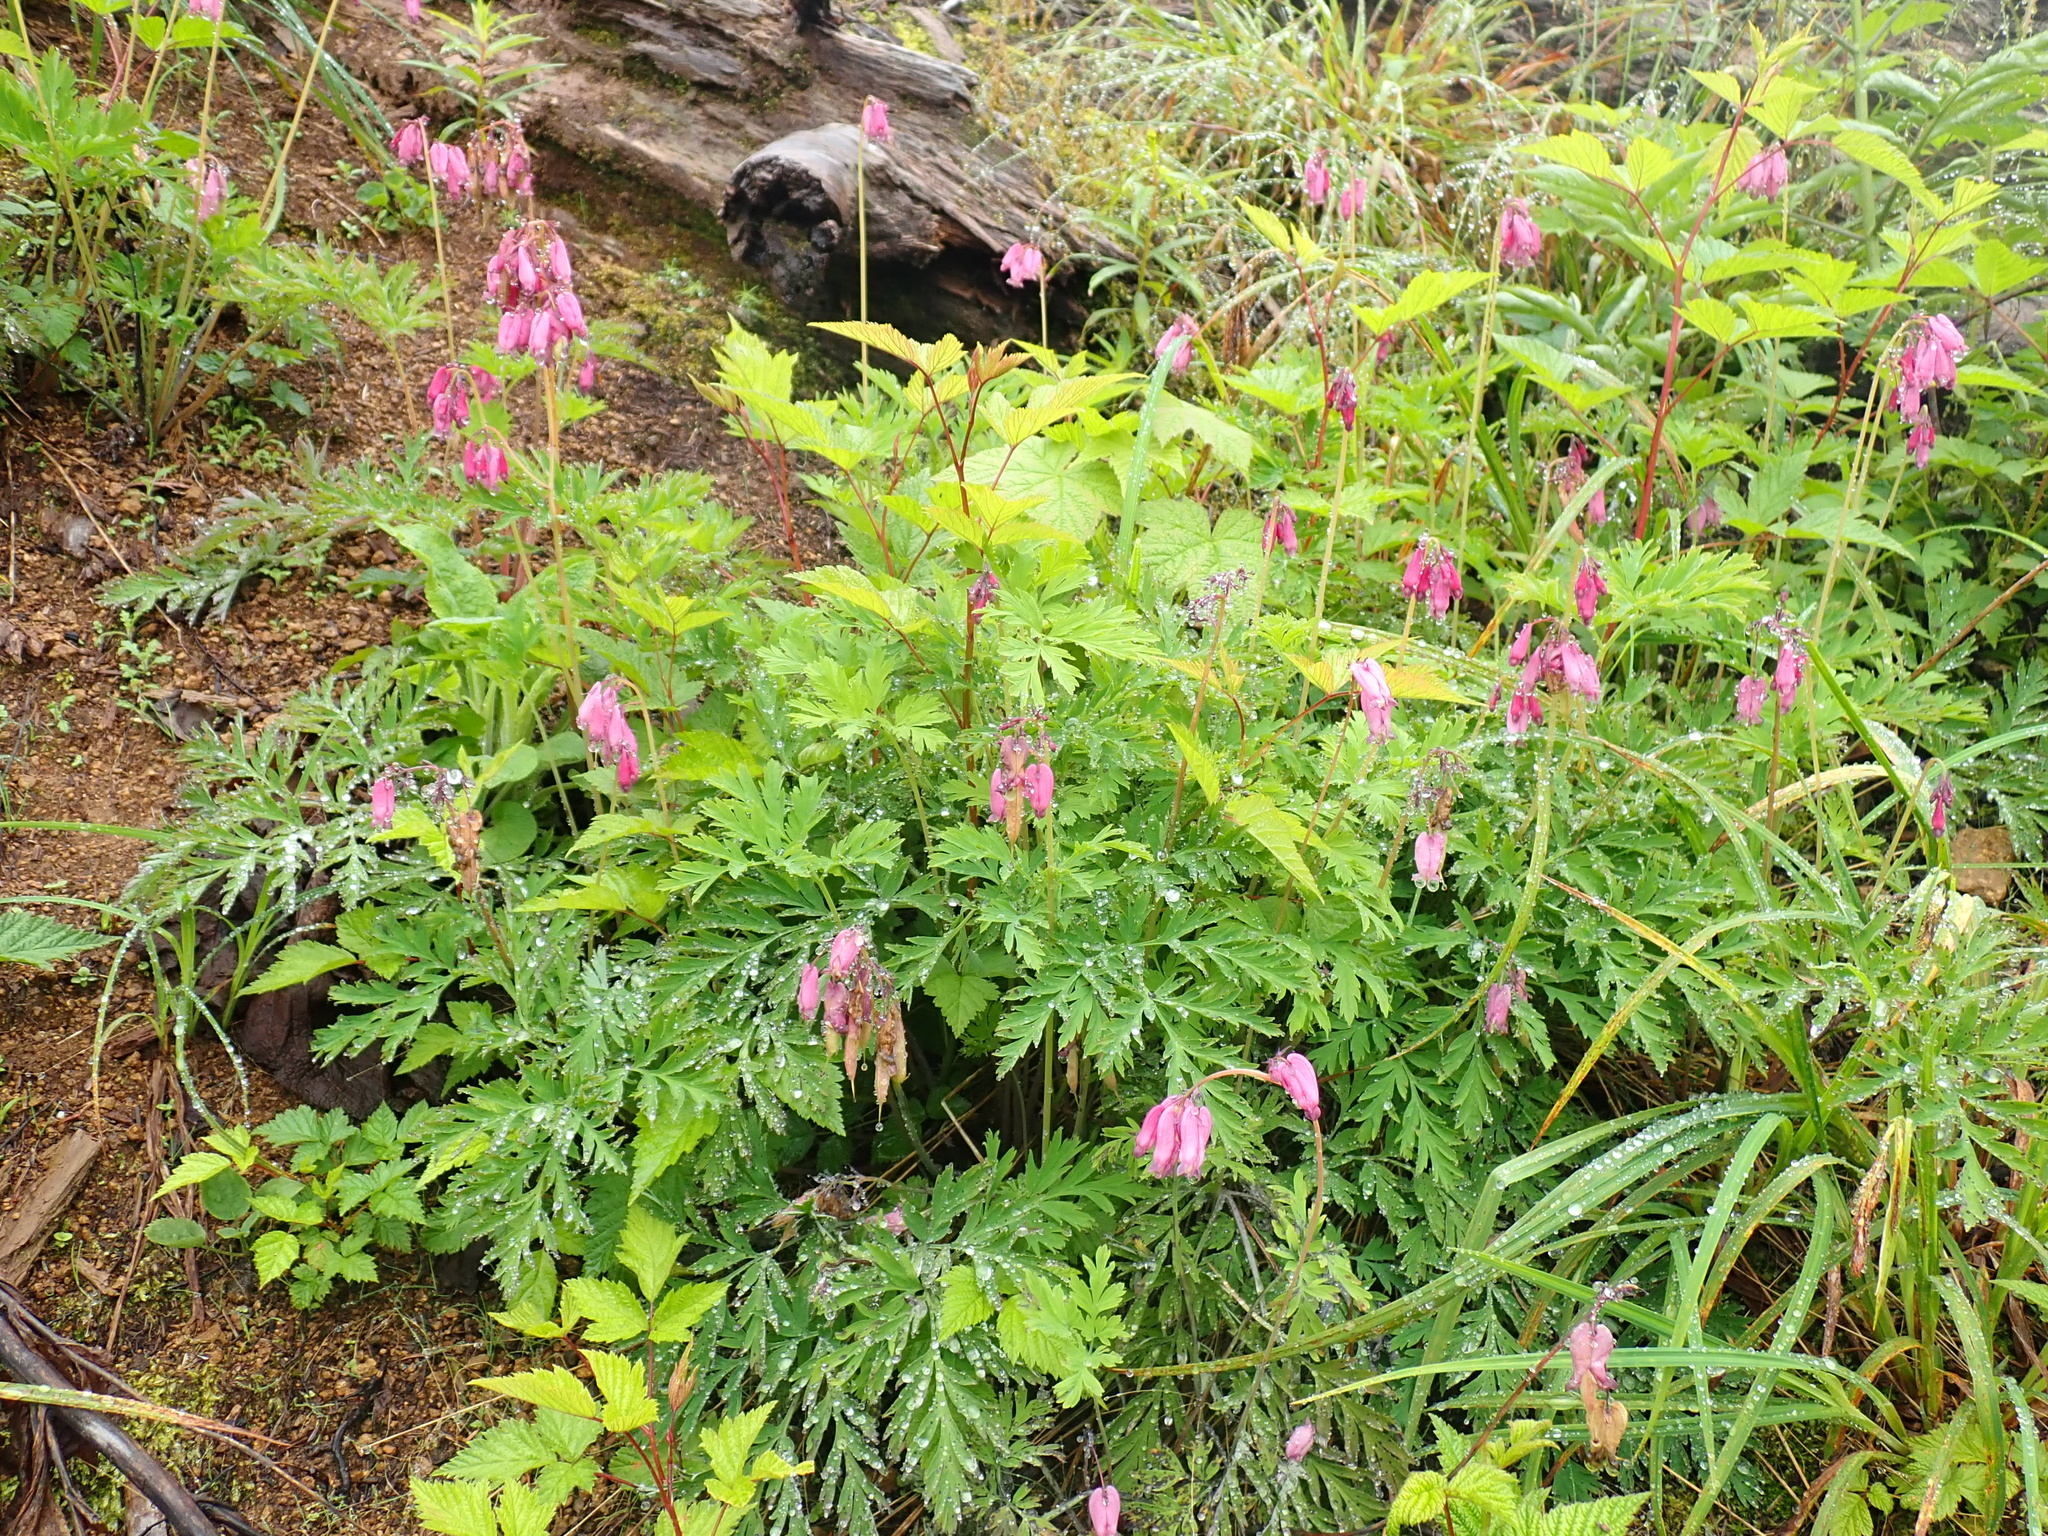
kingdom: Plantae
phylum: Tracheophyta
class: Magnoliopsida
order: Ranunculales
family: Papaveraceae
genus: Dicentra
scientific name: Dicentra formosa
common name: Bleeding-heart
